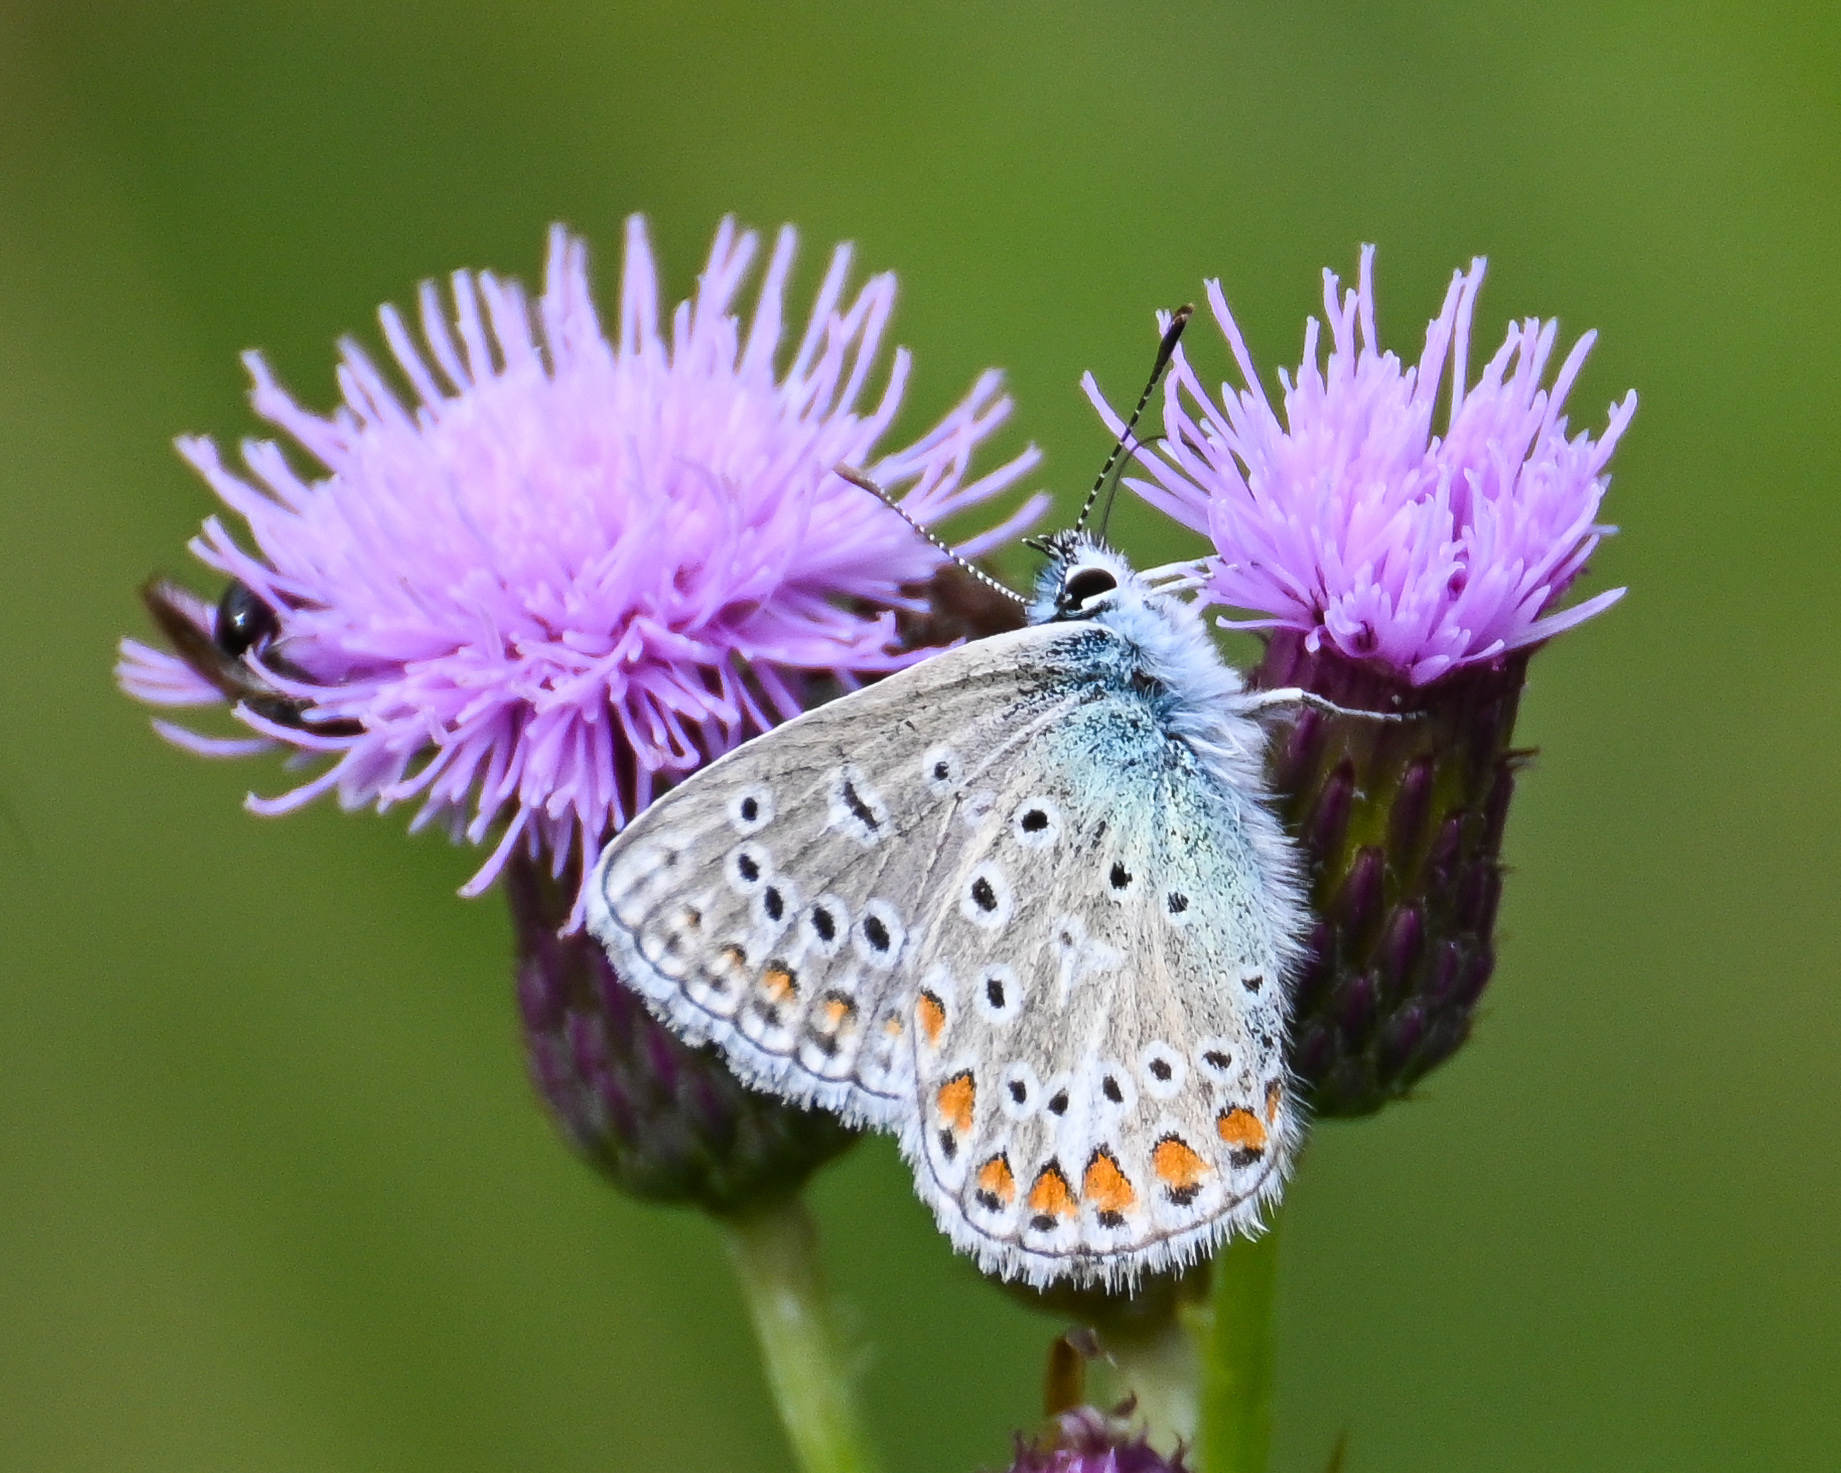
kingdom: Animalia
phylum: Arthropoda
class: Insecta
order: Lepidoptera
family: Lycaenidae
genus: Polyommatus
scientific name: Polyommatus icarus
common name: Common blue
